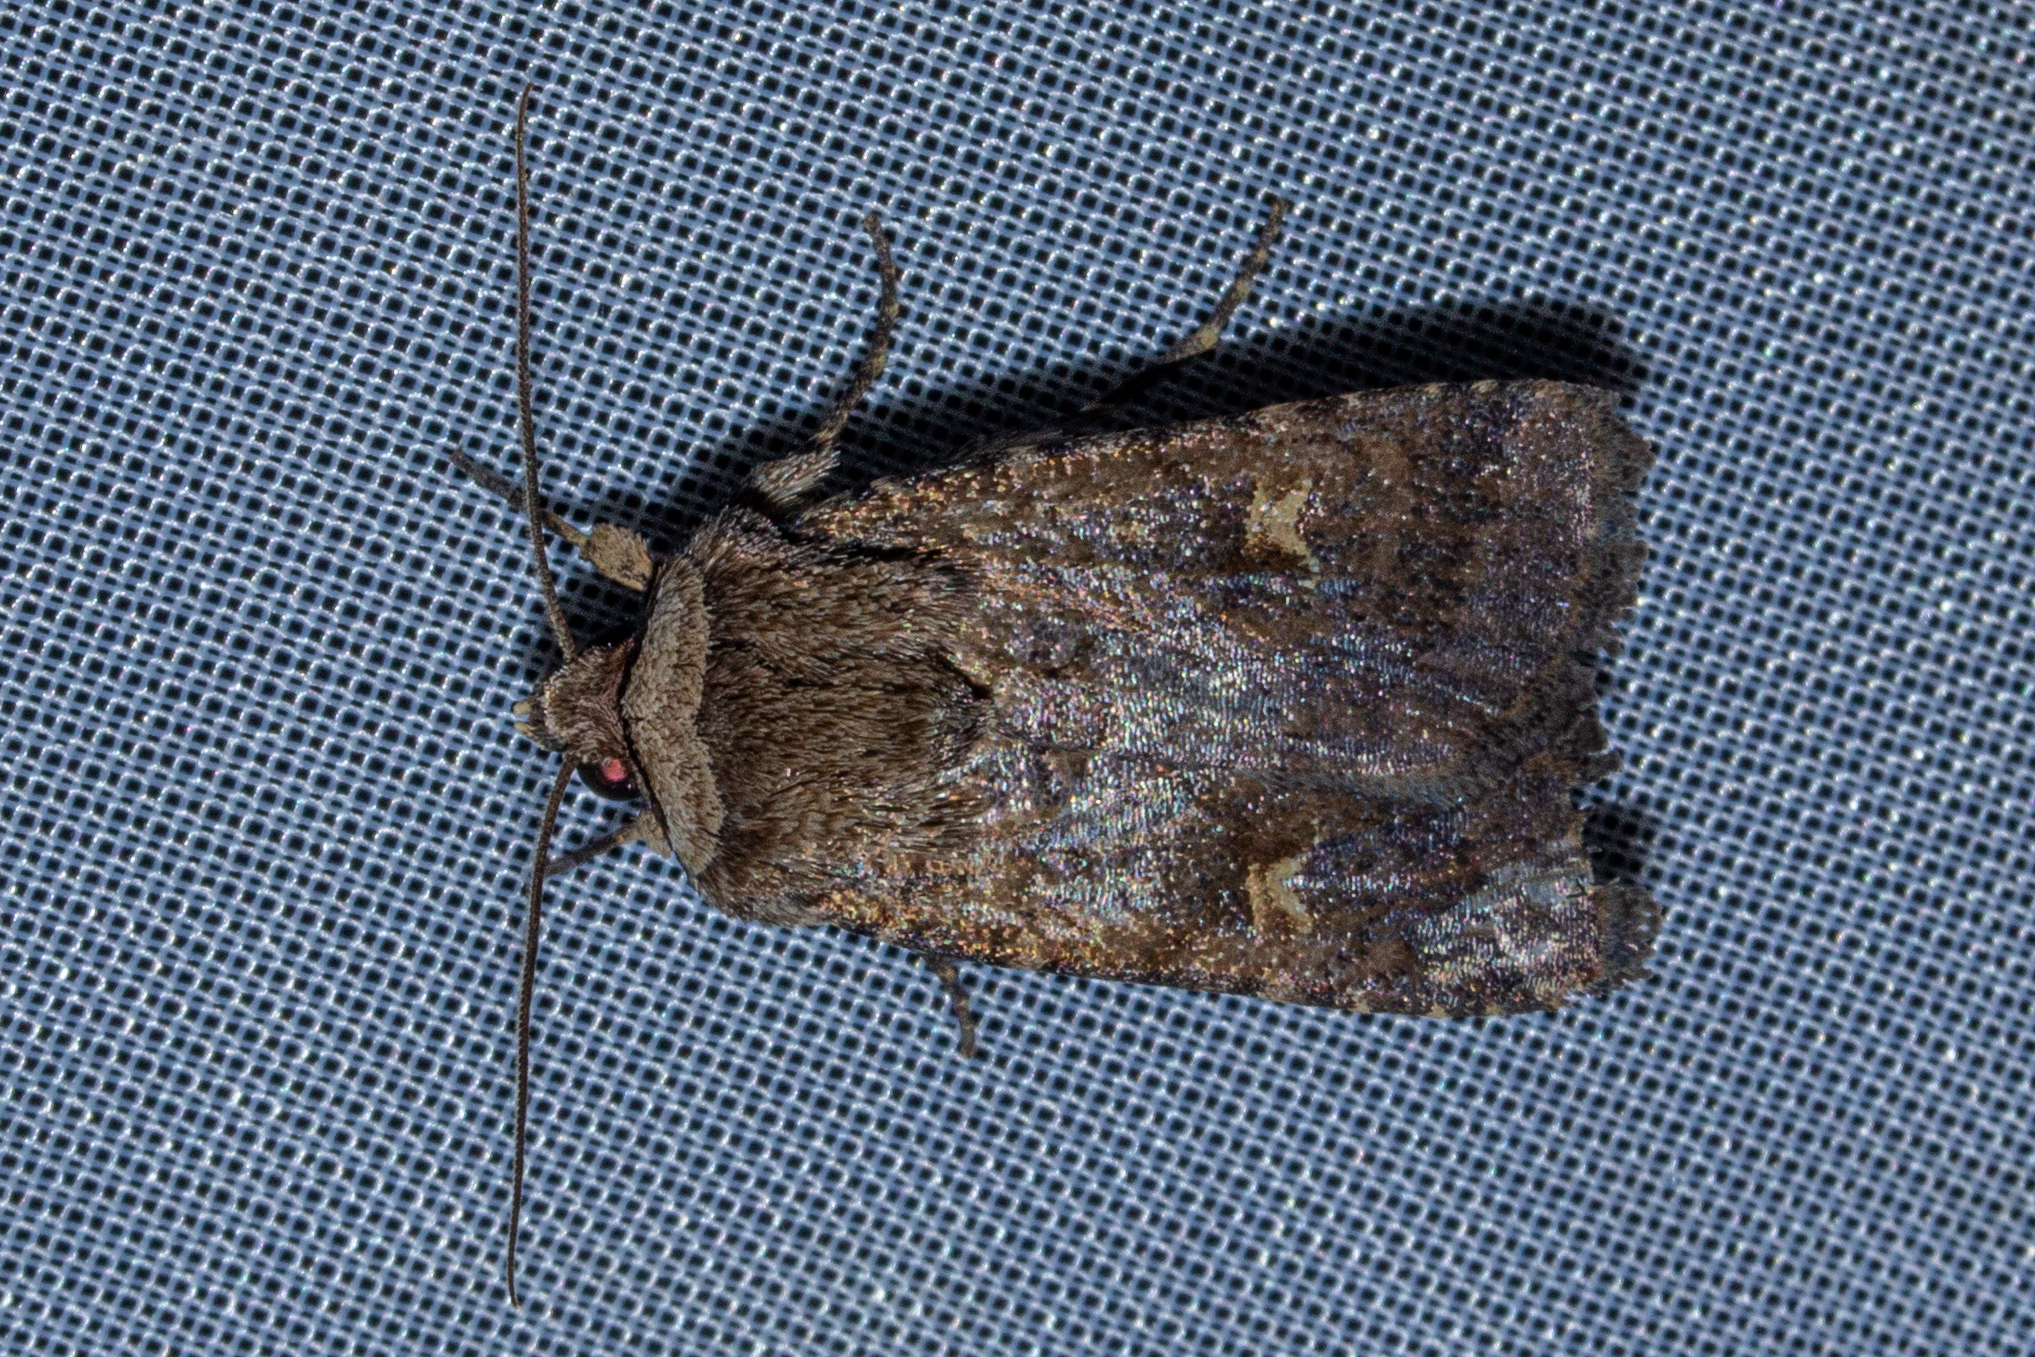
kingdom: Animalia
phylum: Arthropoda
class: Insecta
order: Lepidoptera
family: Noctuidae
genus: Proteuxoa
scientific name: Proteuxoa tetronycha
